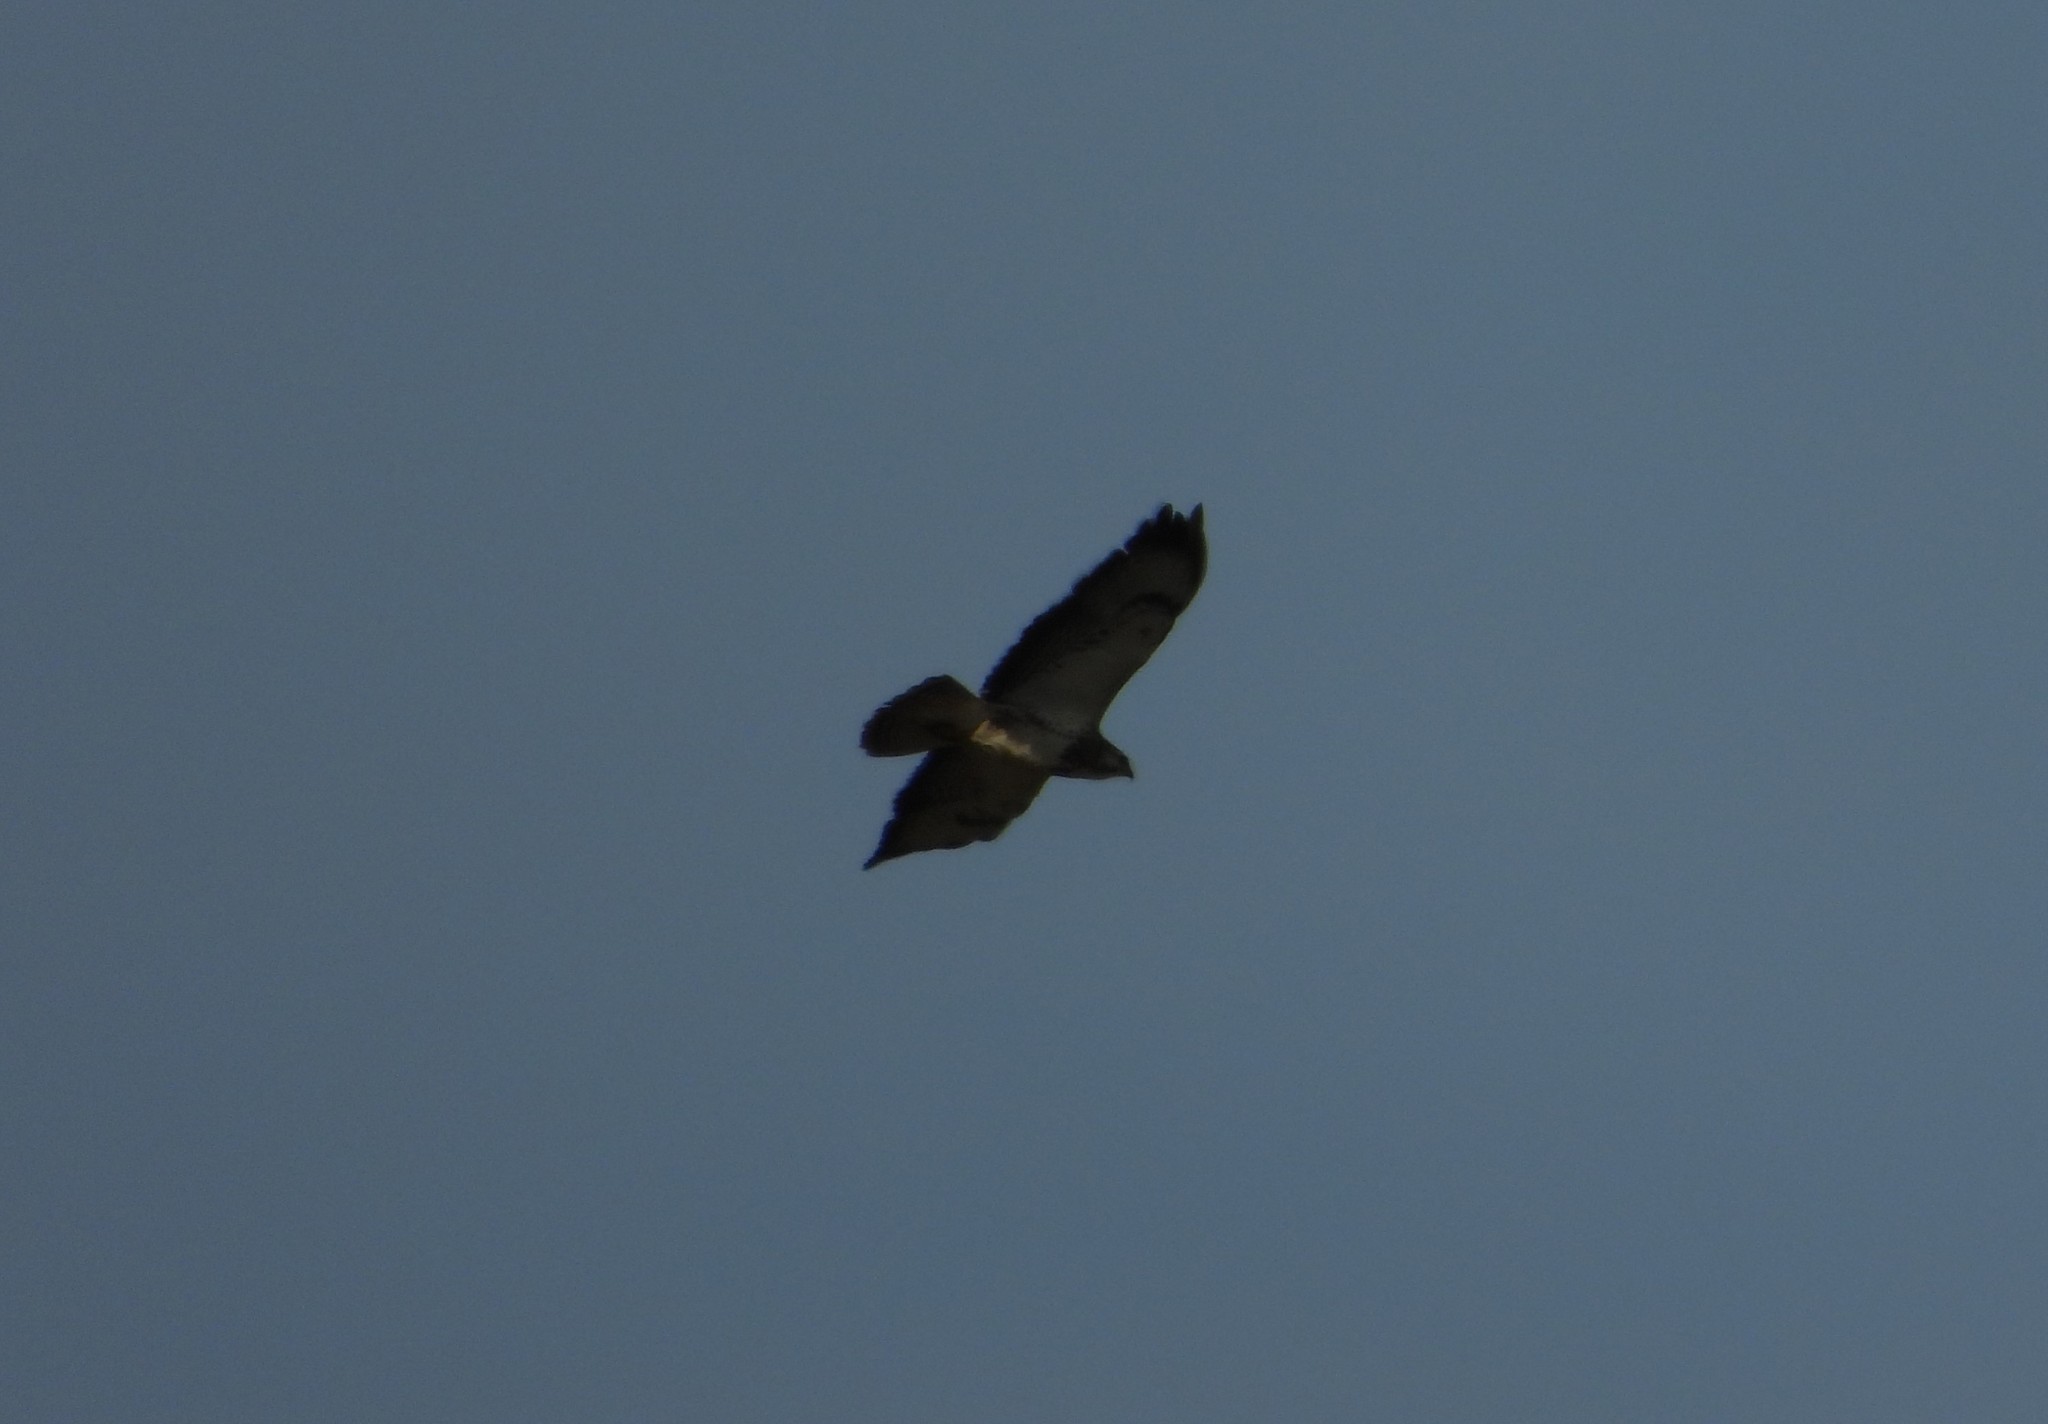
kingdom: Animalia
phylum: Chordata
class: Aves
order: Accipitriformes
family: Accipitridae
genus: Buteo
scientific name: Buteo buteo
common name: Common buzzard
